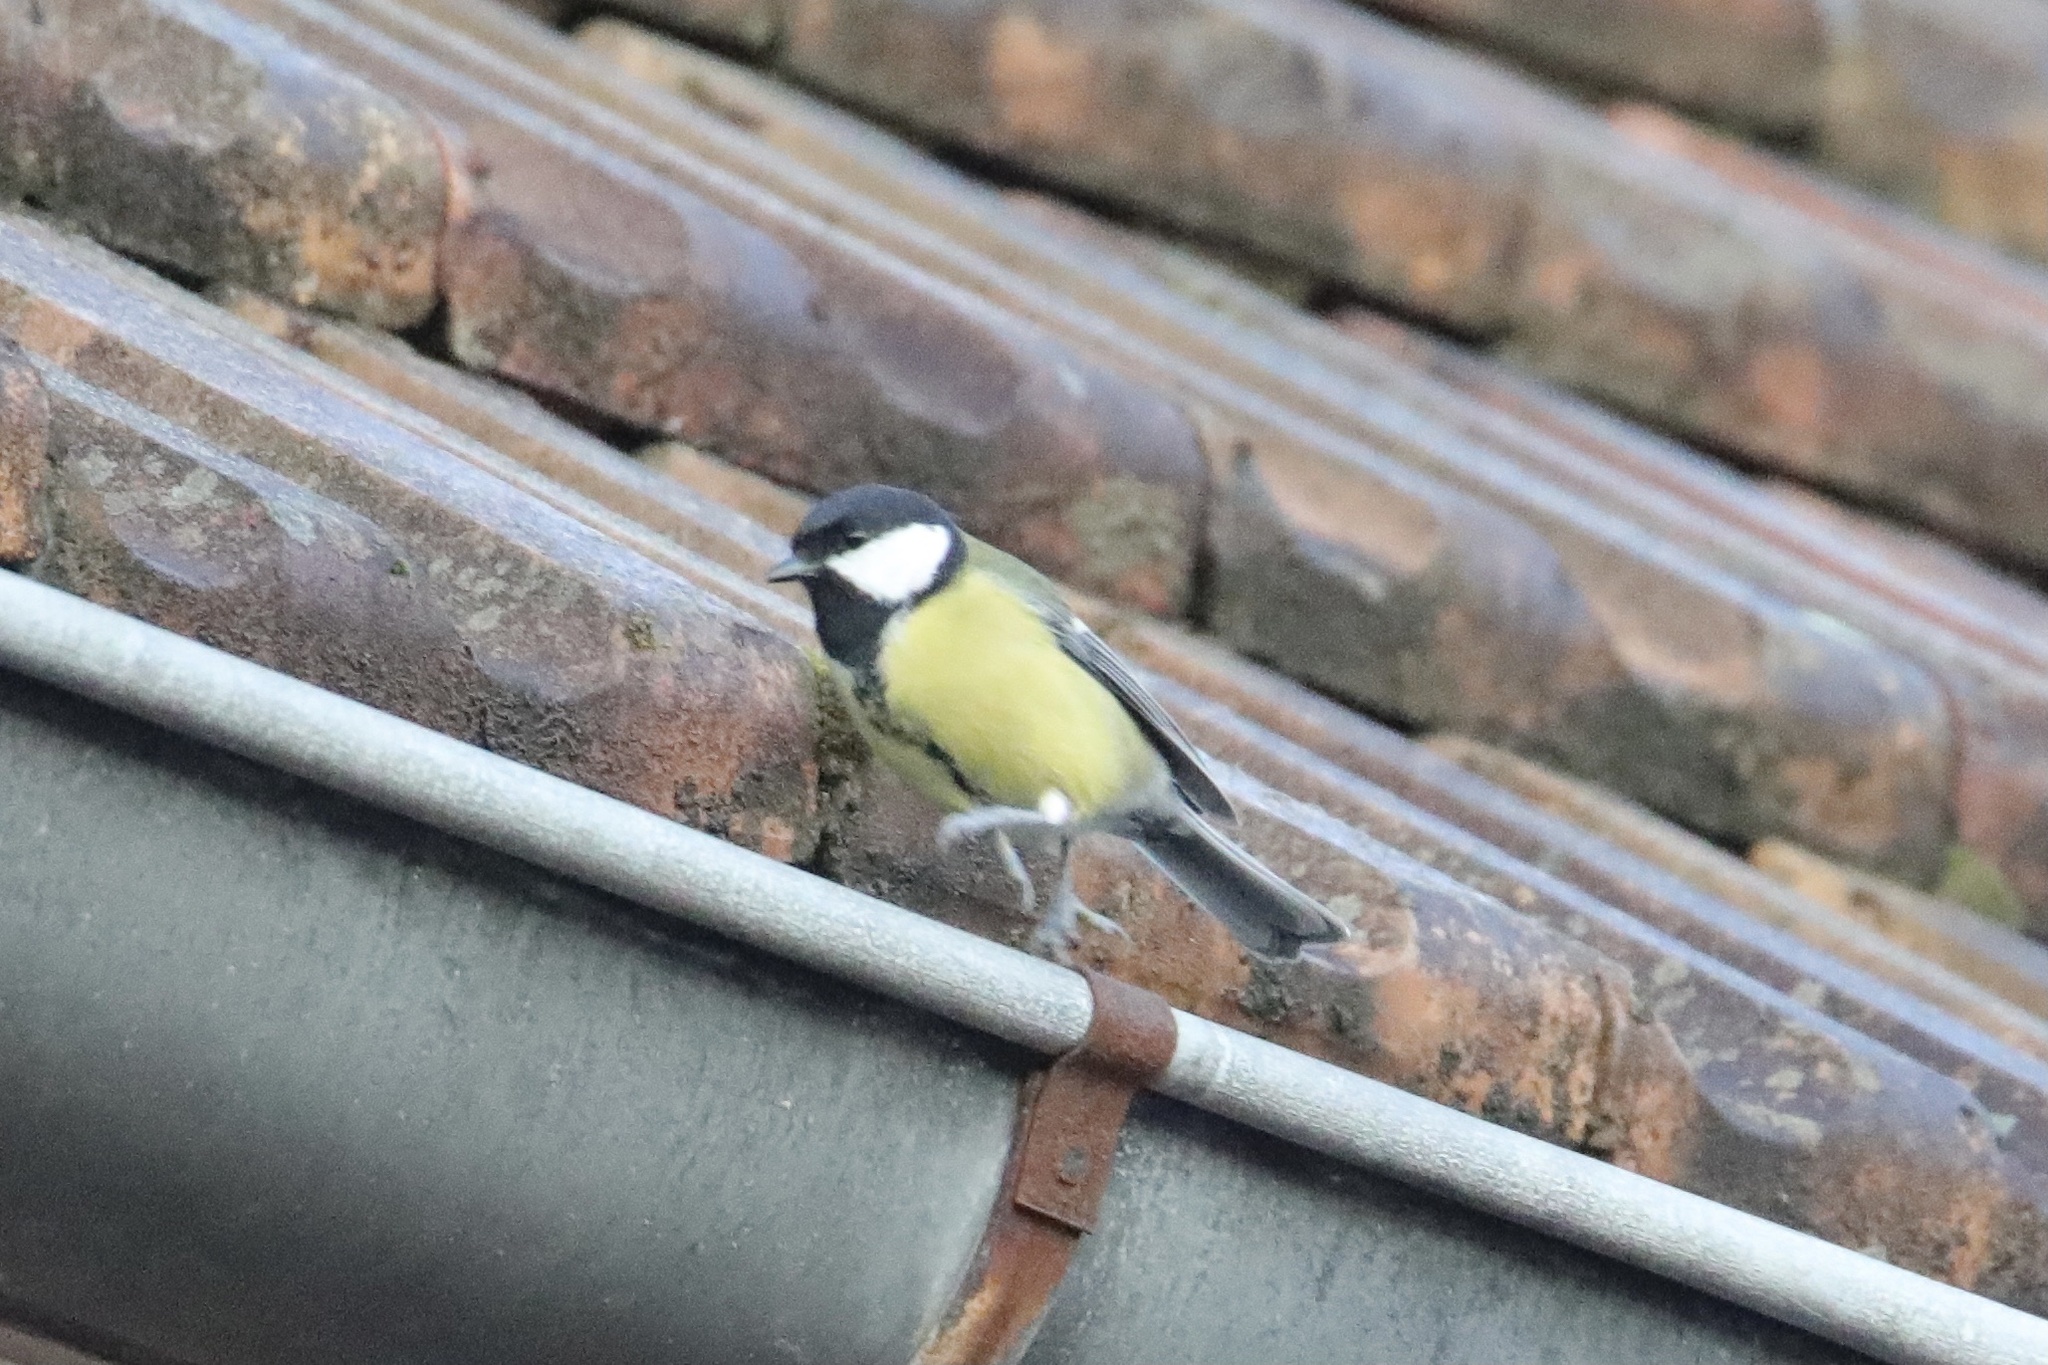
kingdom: Animalia
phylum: Chordata
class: Aves
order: Passeriformes
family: Paridae
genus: Parus
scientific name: Parus major
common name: Great tit
